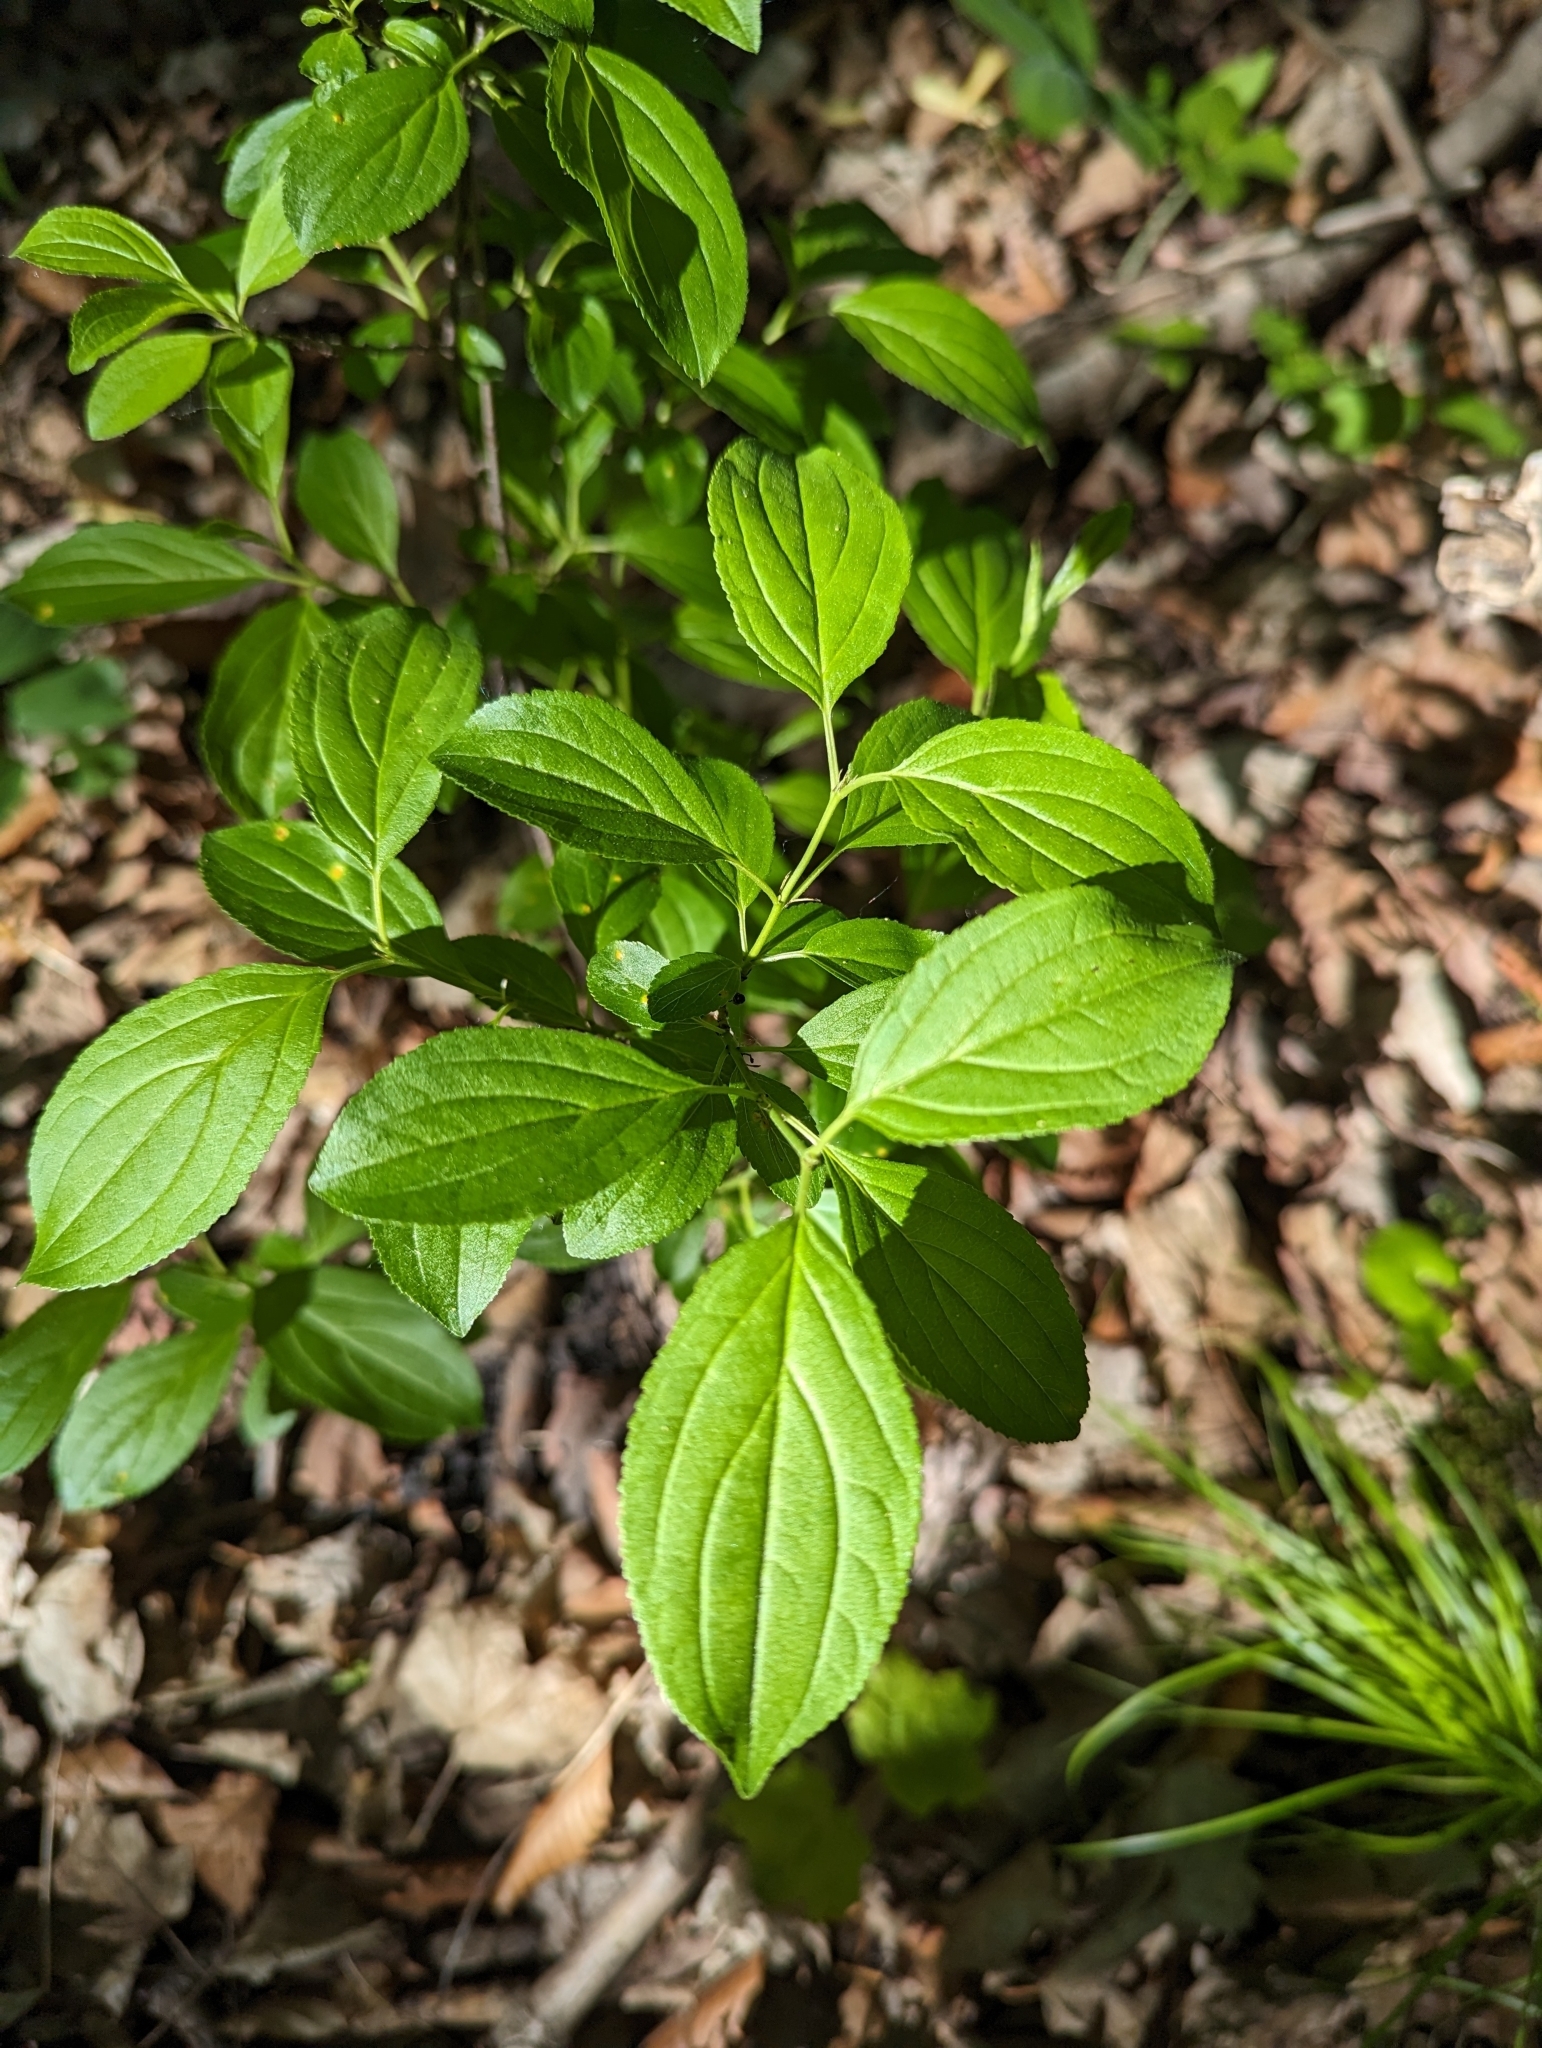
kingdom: Plantae
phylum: Tracheophyta
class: Magnoliopsida
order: Rosales
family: Rhamnaceae
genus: Rhamnus
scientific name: Rhamnus cathartica
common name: Common buckthorn
